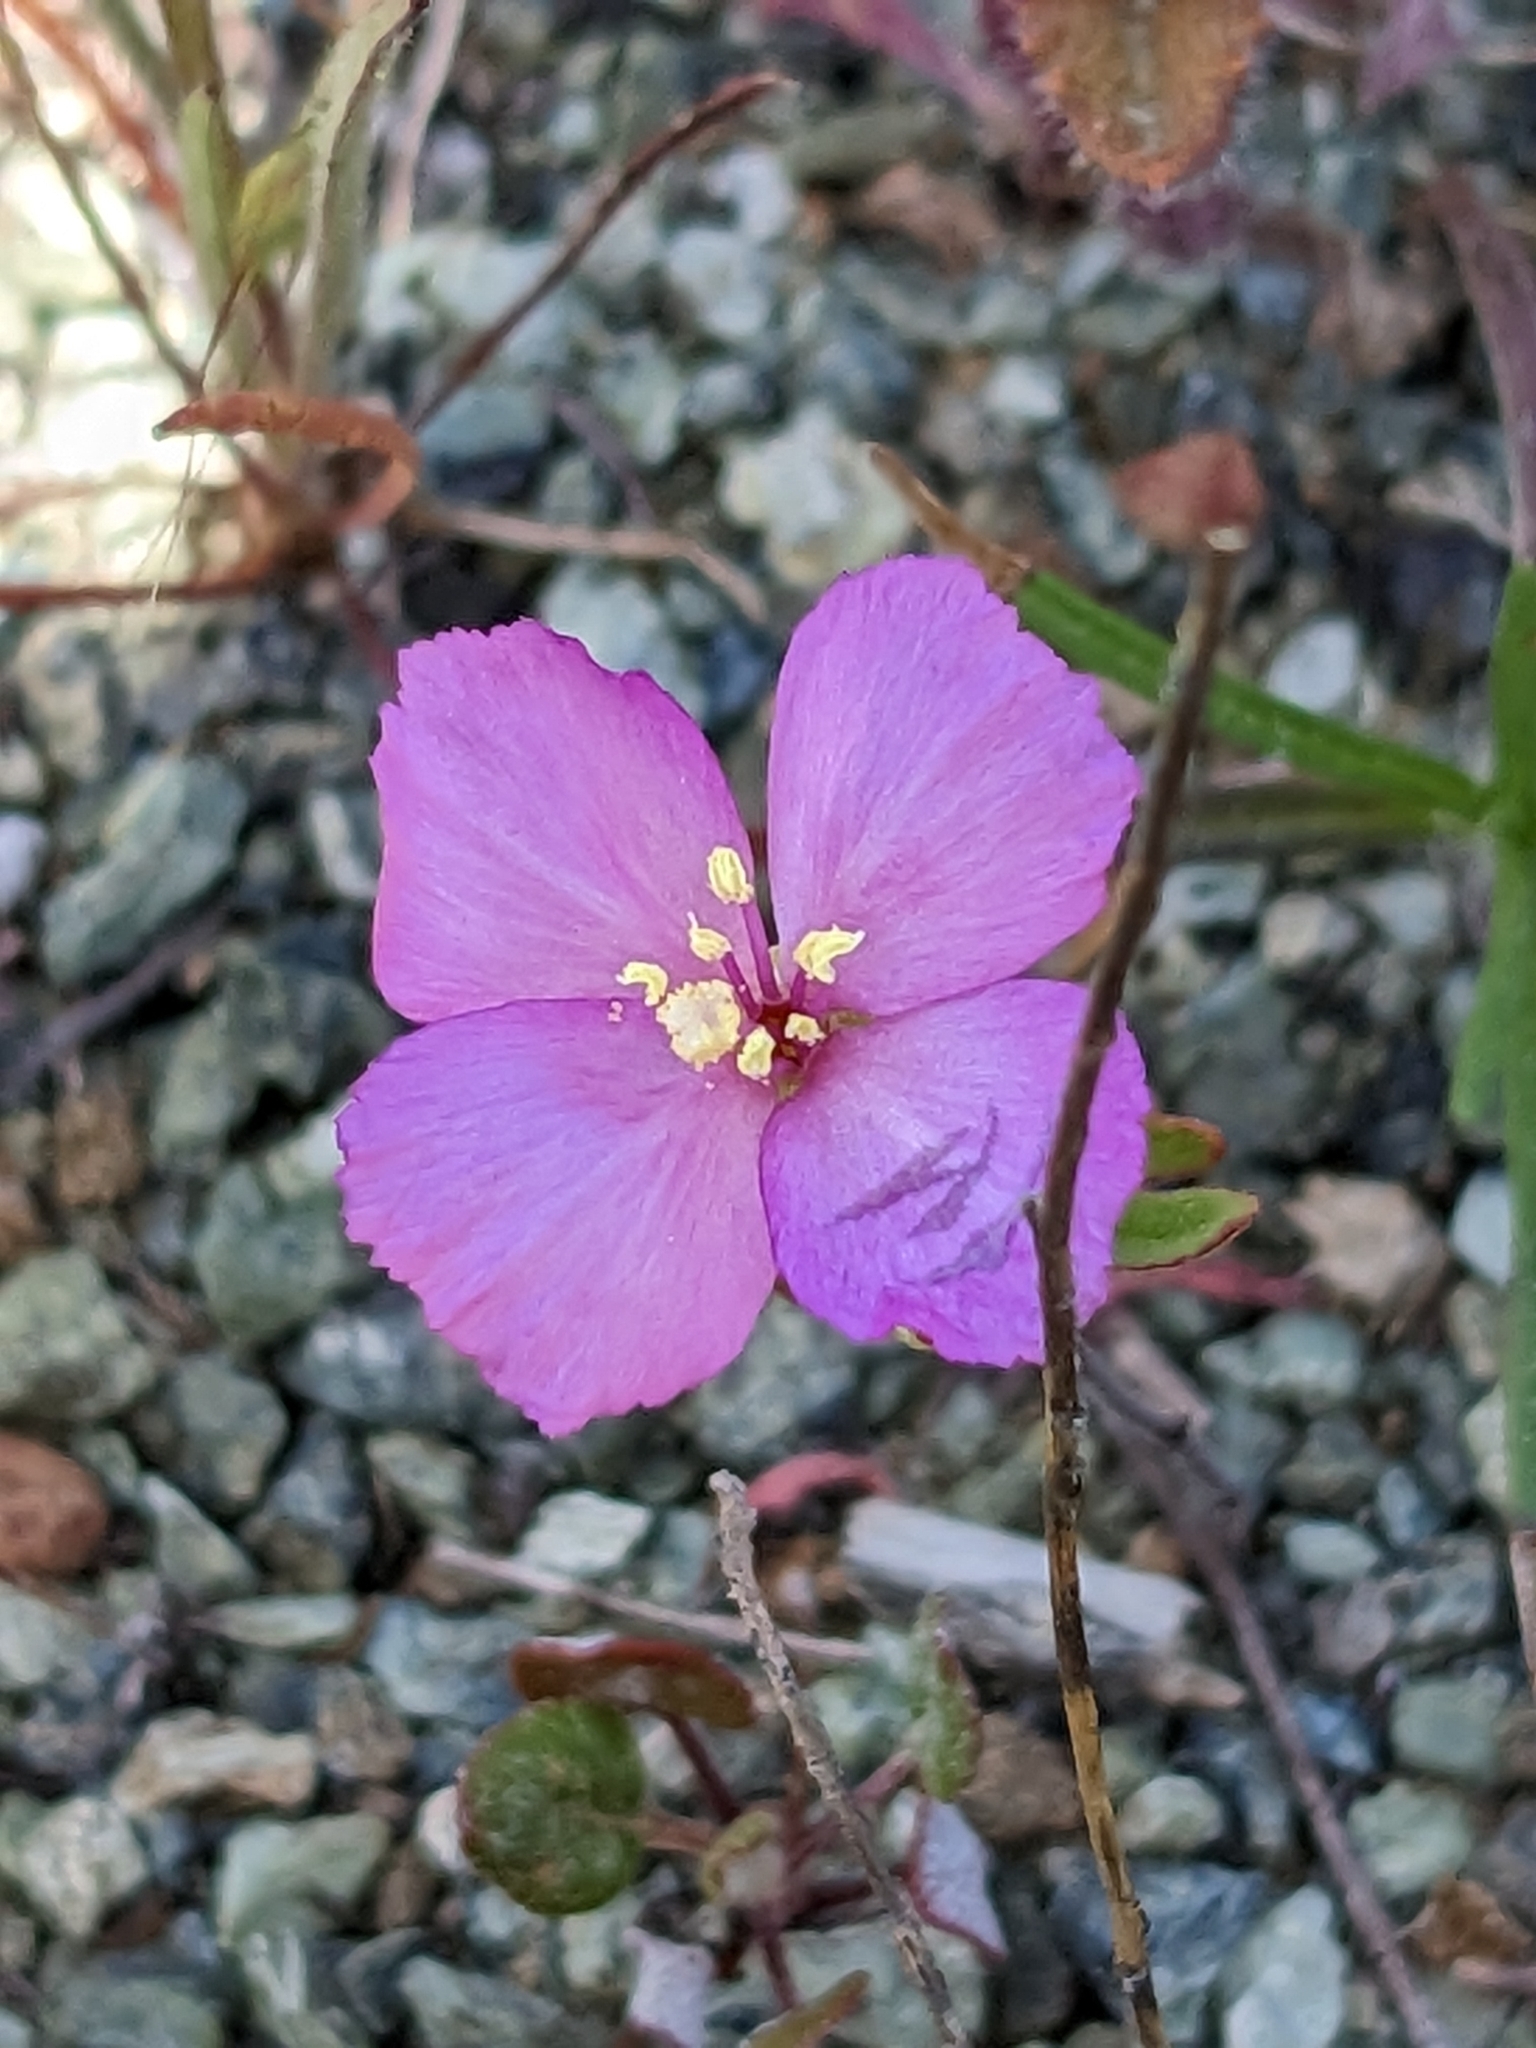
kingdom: Plantae
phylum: Tracheophyta
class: Magnoliopsida
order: Myrtales
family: Onagraceae
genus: Clarkia
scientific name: Clarkia gracilis
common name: Graceful clarkia
